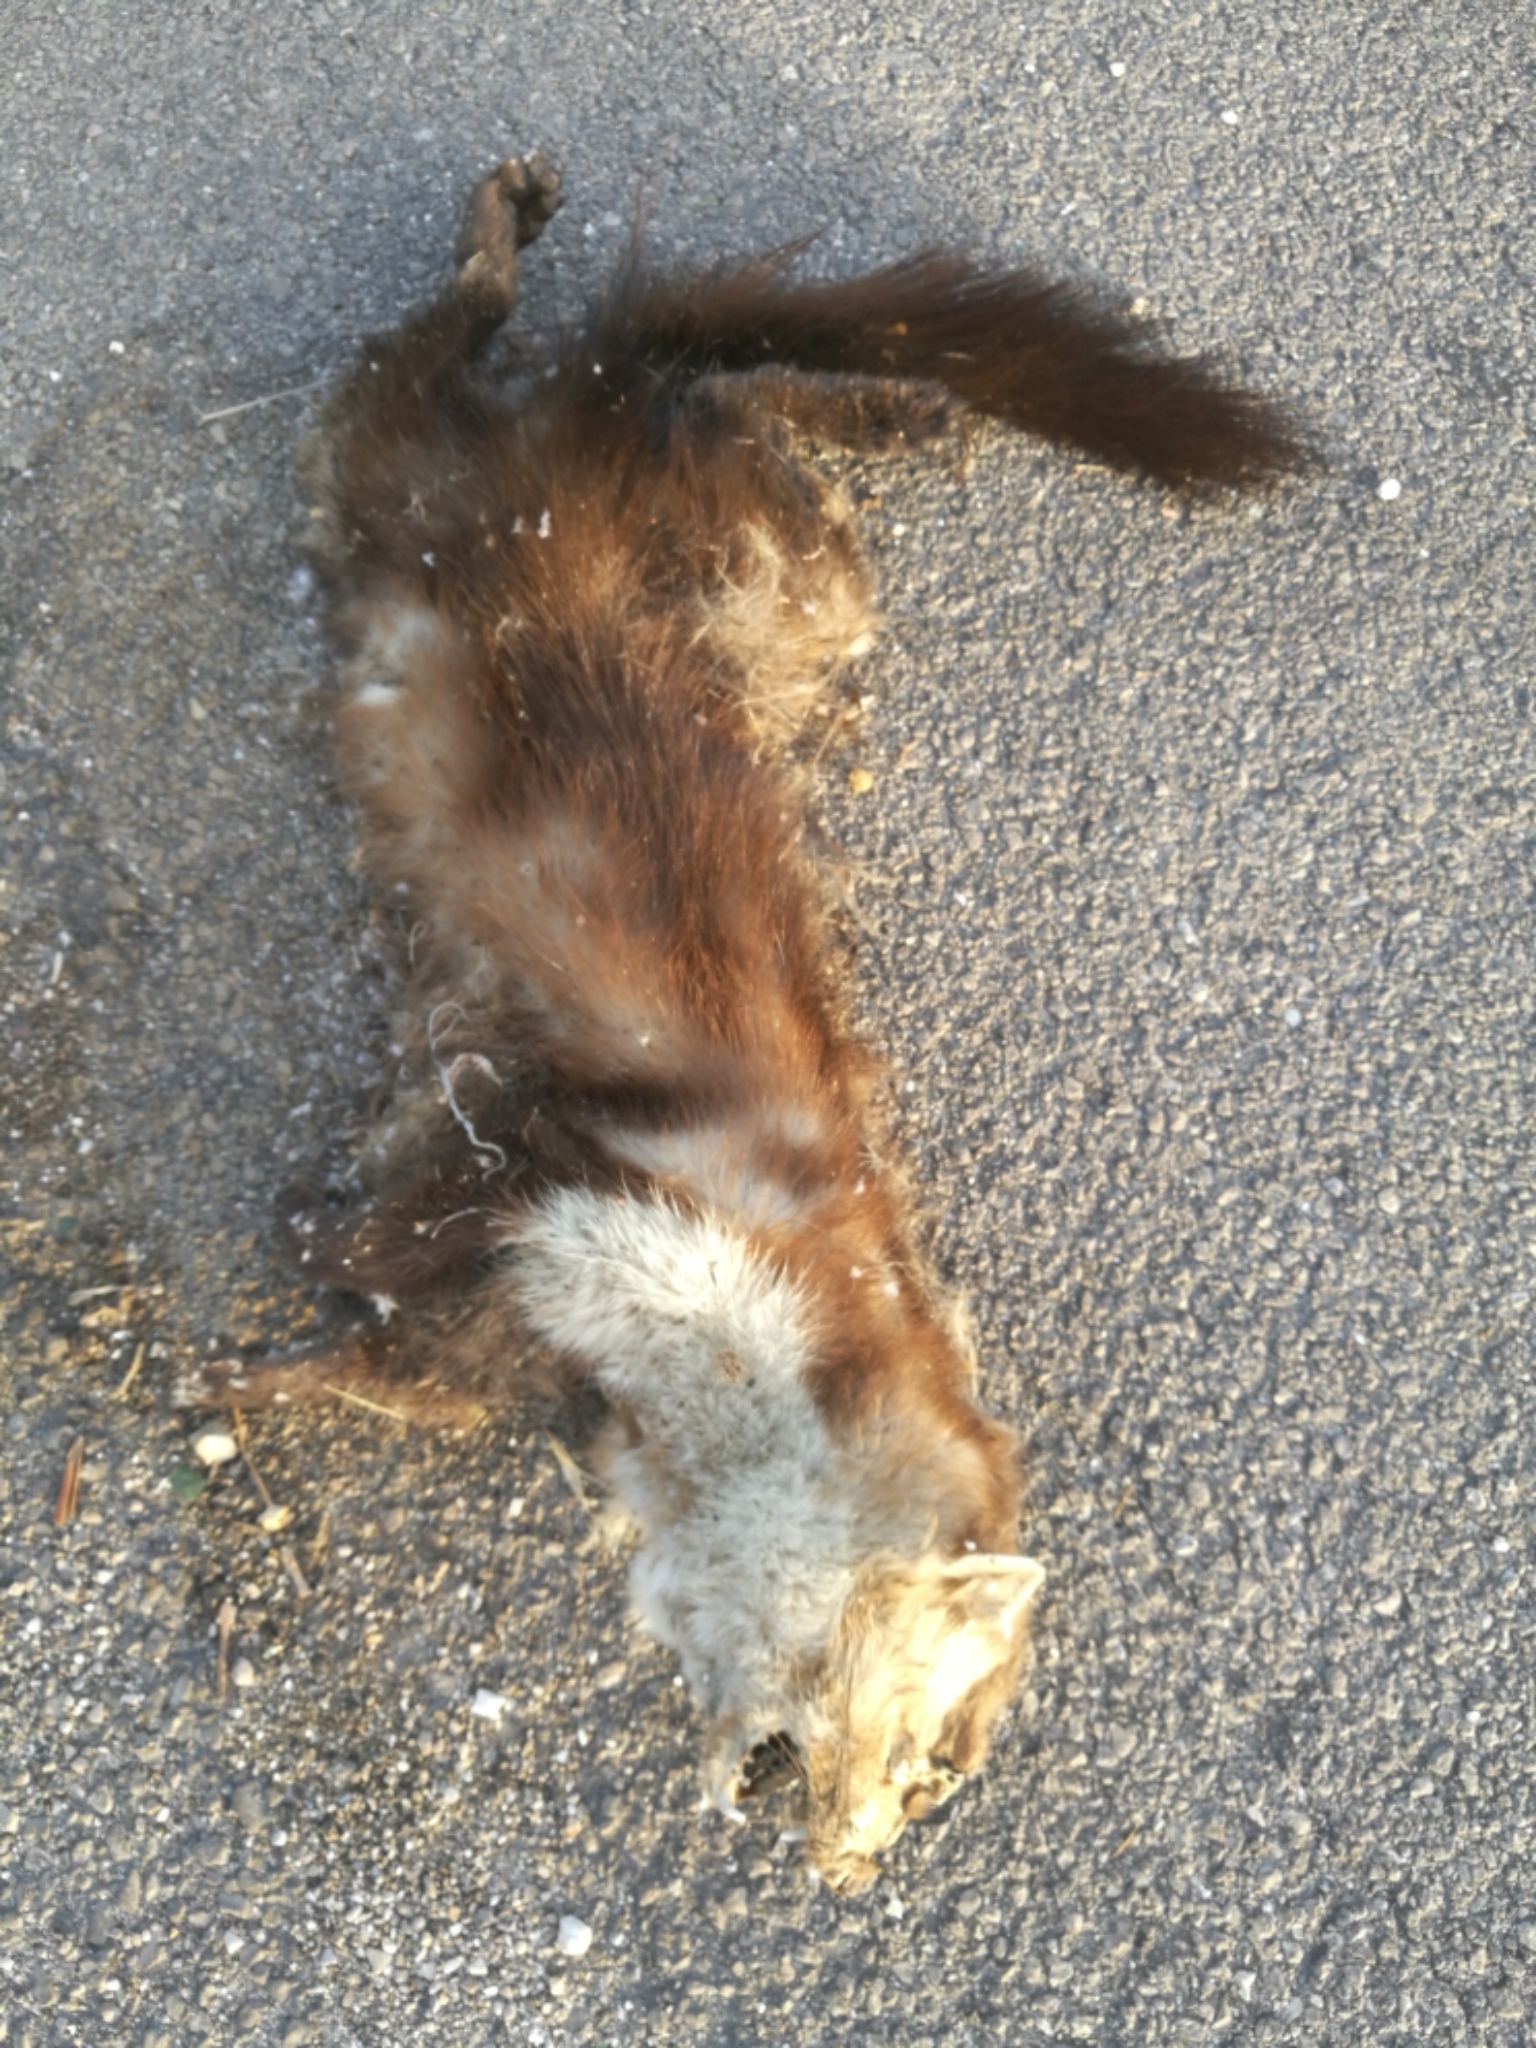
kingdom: Animalia
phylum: Chordata
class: Mammalia
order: Carnivora
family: Mustelidae
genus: Martes
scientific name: Martes foina
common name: Beech marten
